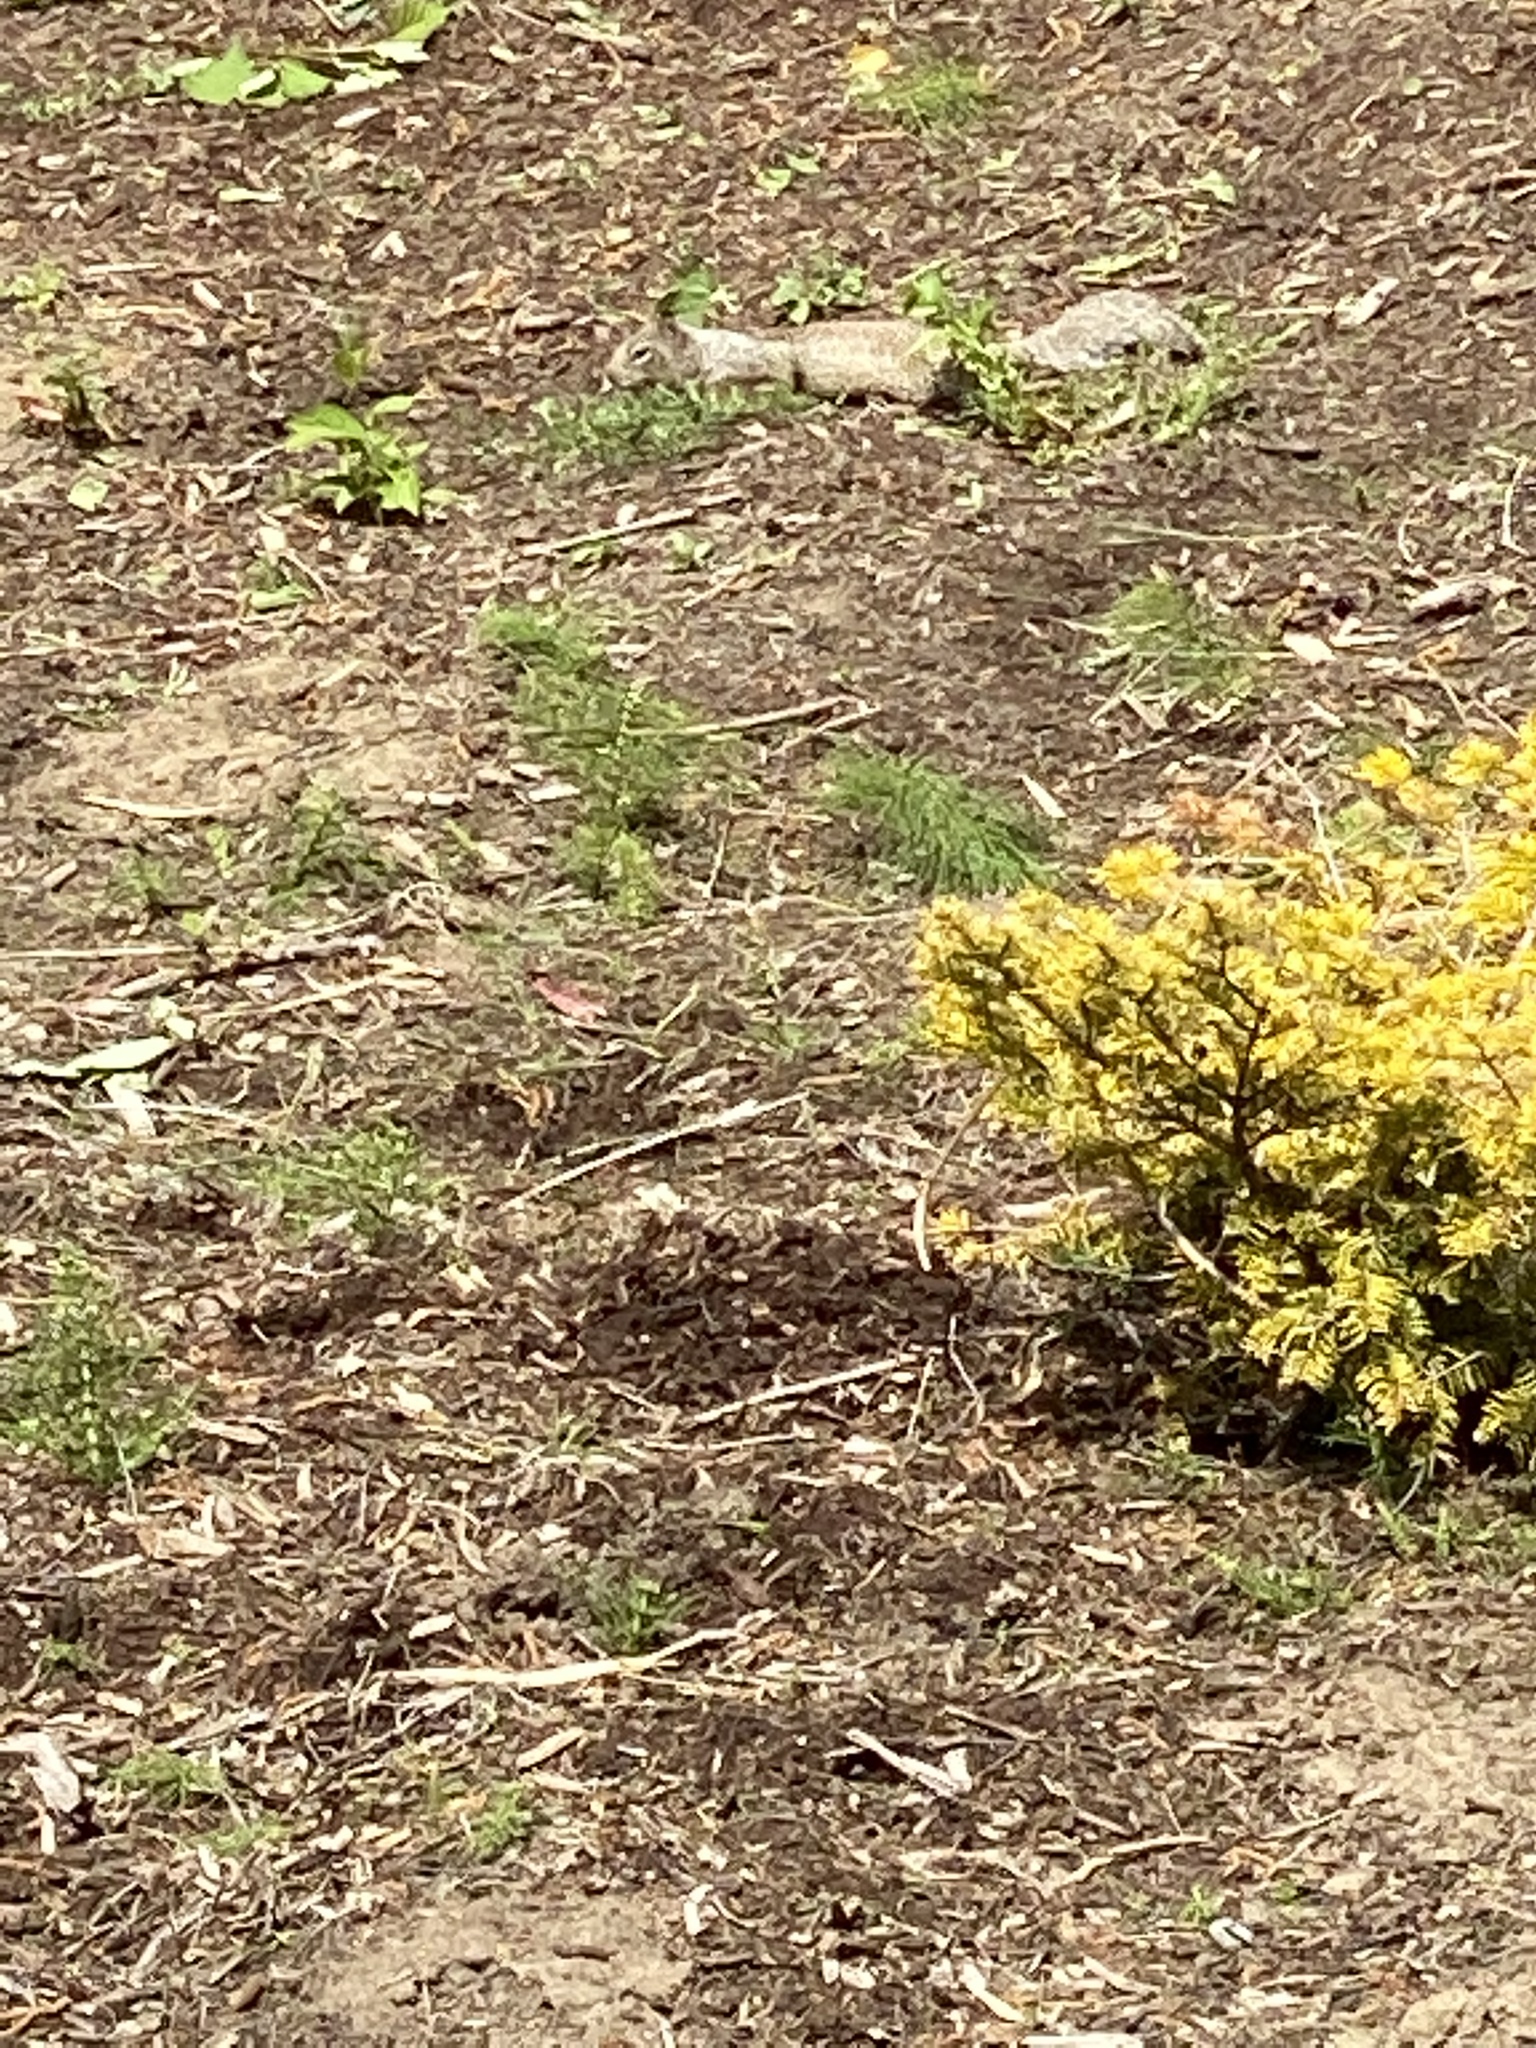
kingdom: Animalia
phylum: Chordata
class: Mammalia
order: Rodentia
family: Sciuridae
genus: Otospermophilus
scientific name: Otospermophilus beecheyi
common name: California ground squirrel
